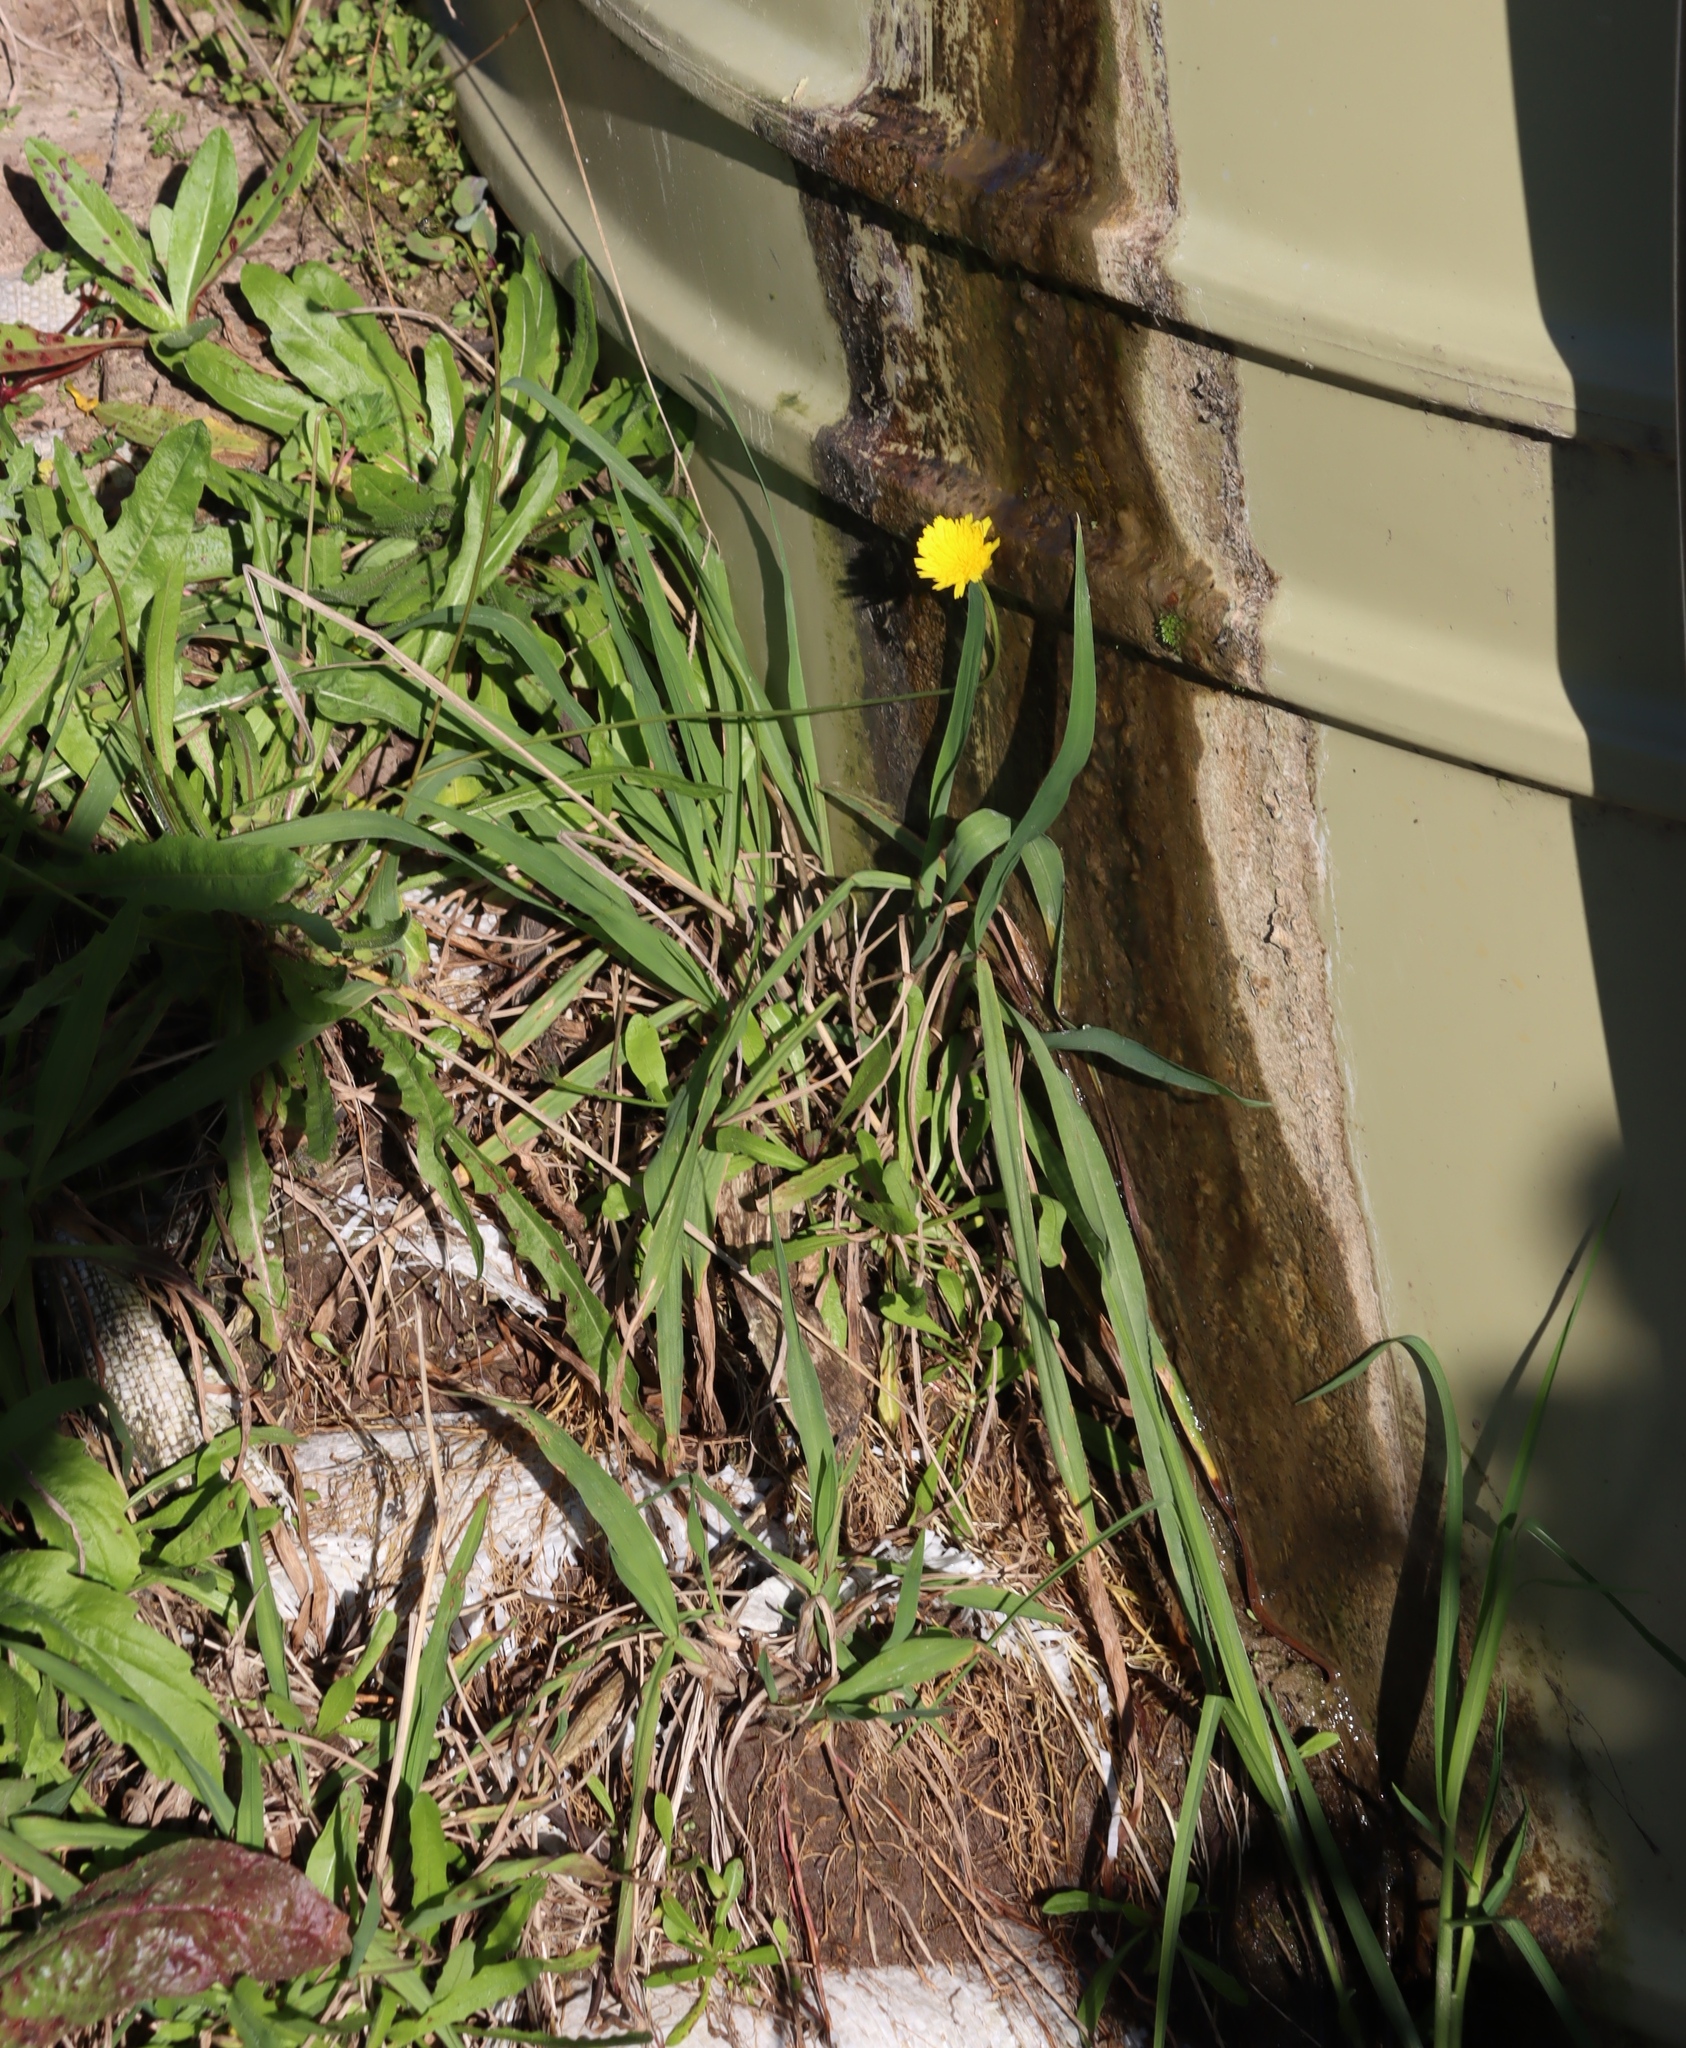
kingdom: Plantae
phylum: Tracheophyta
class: Magnoliopsida
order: Asterales
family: Asteraceae
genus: Hypochaeris
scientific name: Hypochaeris radicata
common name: Flatweed
